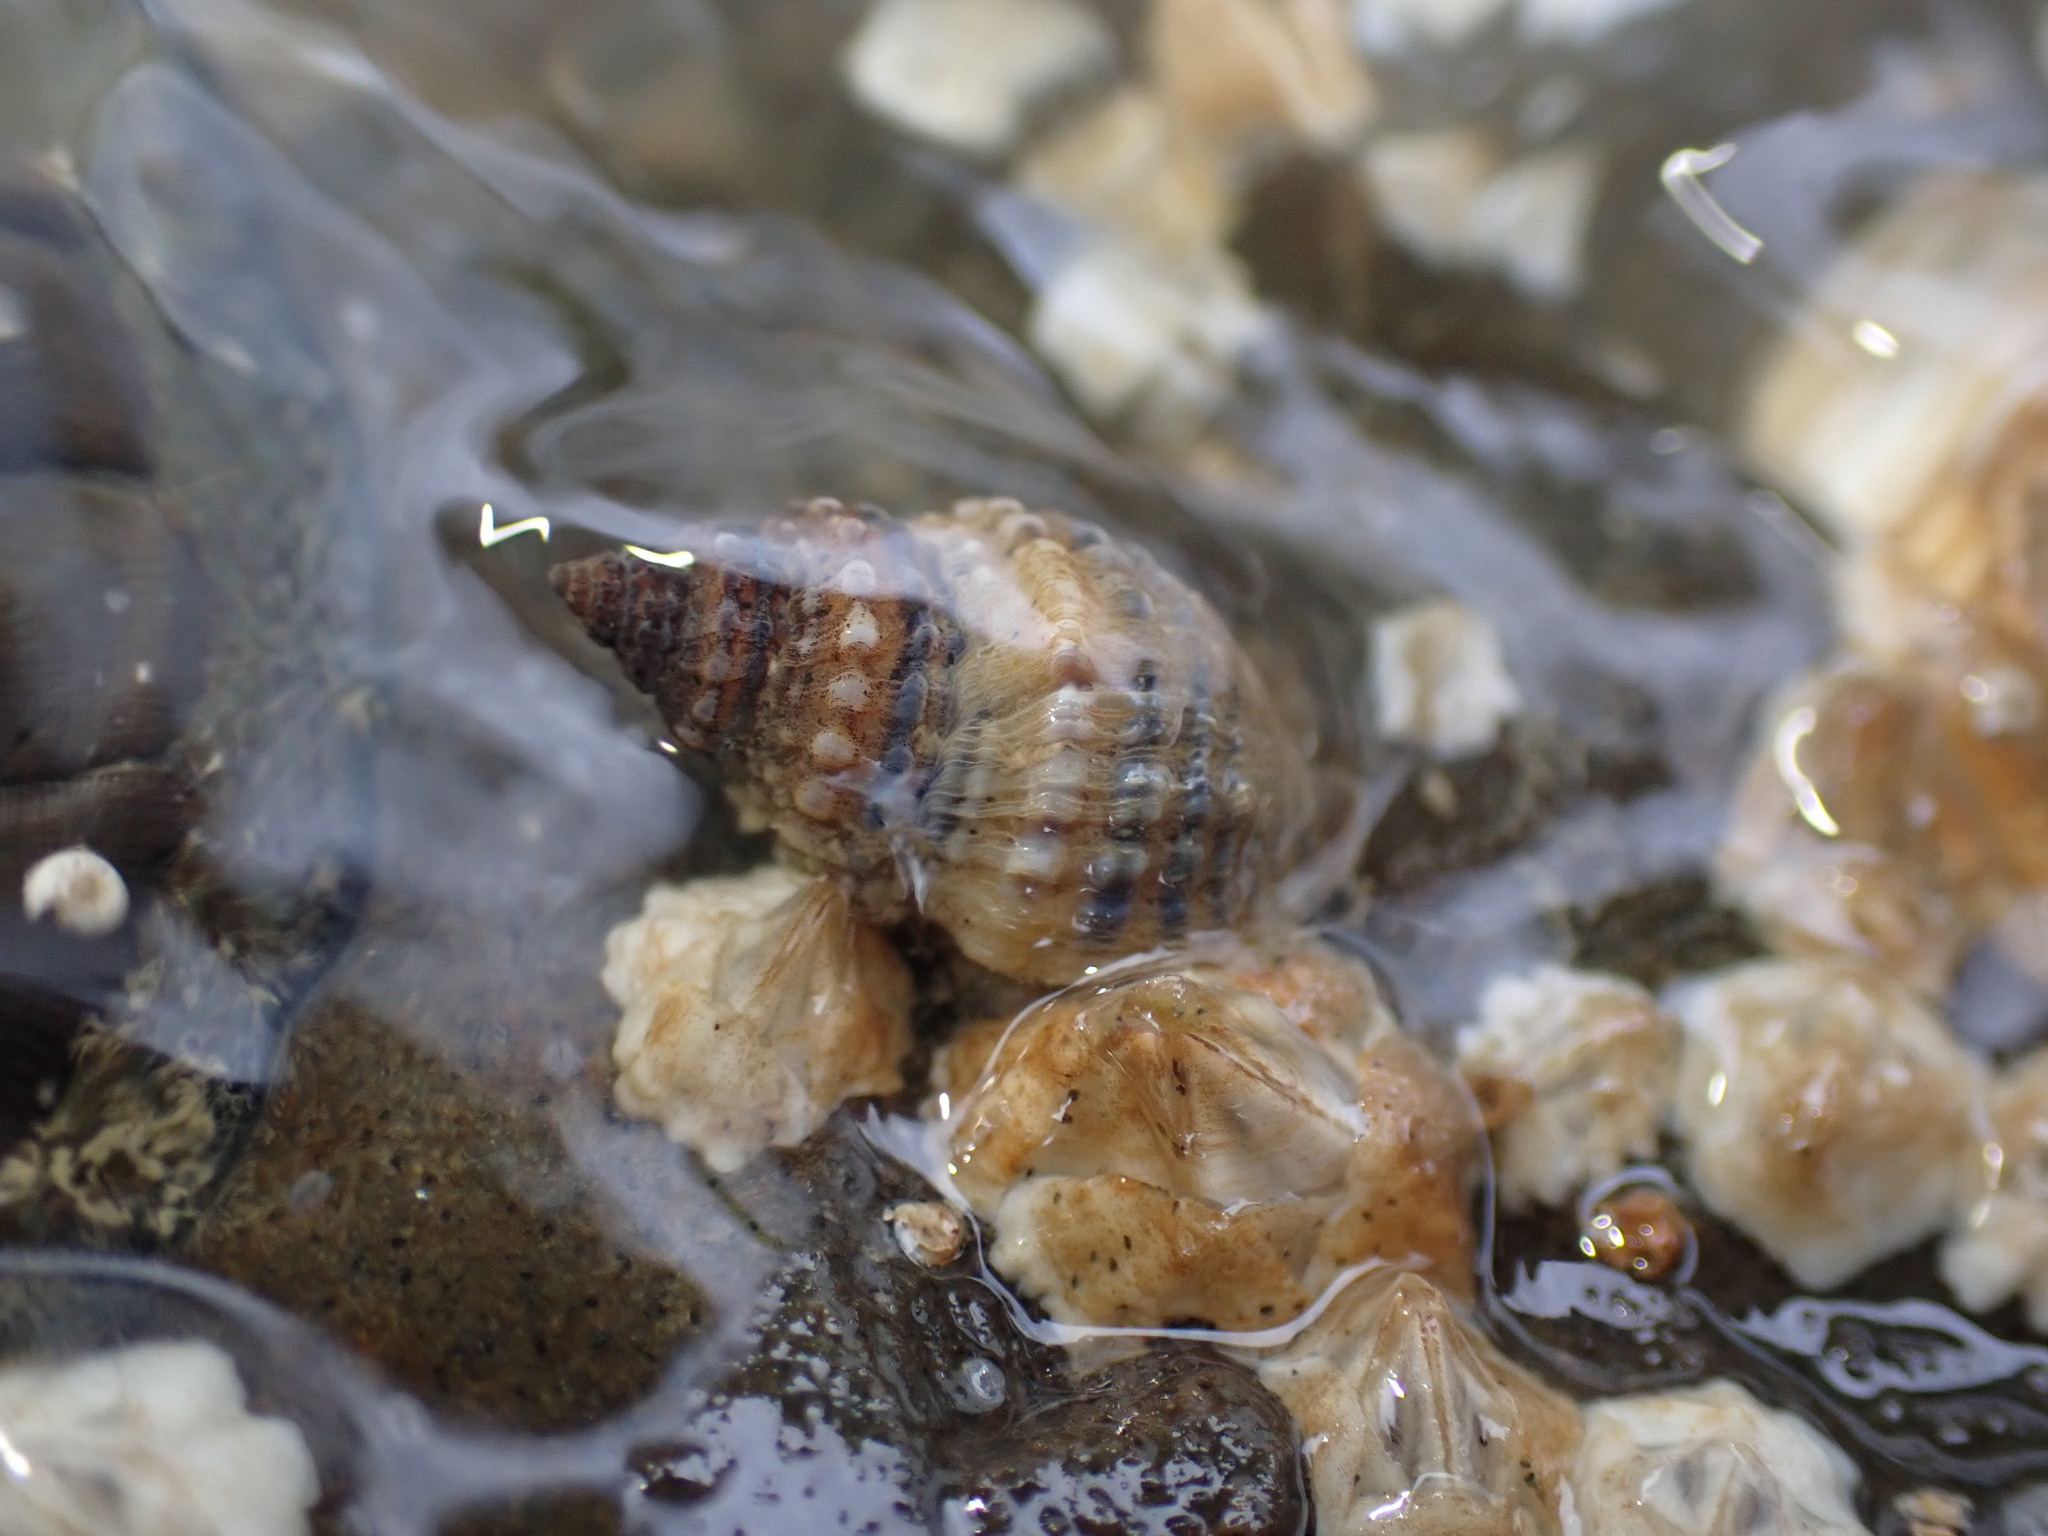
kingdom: Animalia
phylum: Mollusca
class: Gastropoda
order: Neogastropoda
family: Muricidae
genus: Xymene
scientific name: Xymene plebeius
